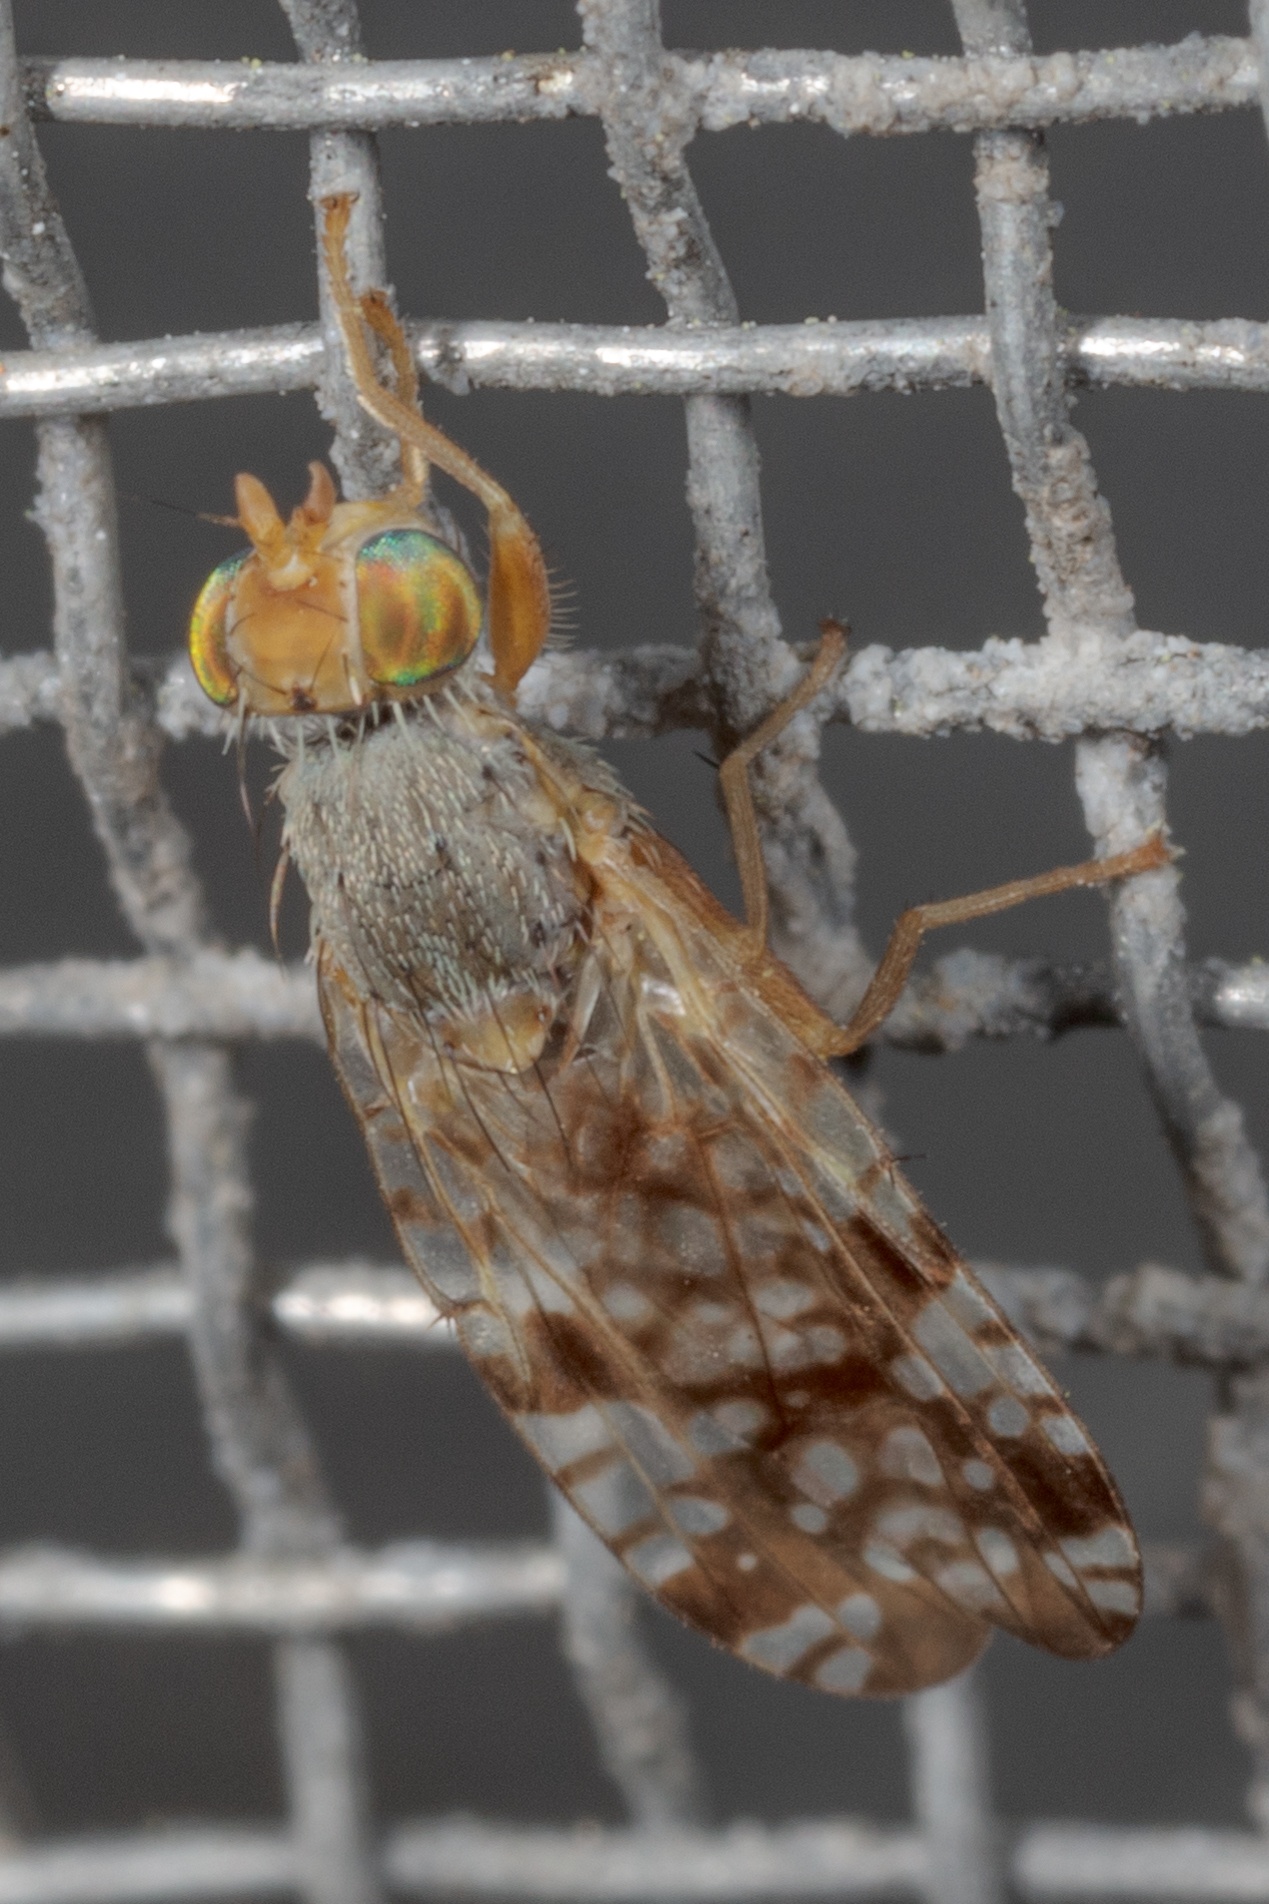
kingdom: Animalia
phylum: Arthropoda
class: Insecta
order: Diptera
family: Tephritidae
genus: Neotephritis
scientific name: Neotephritis finalis
